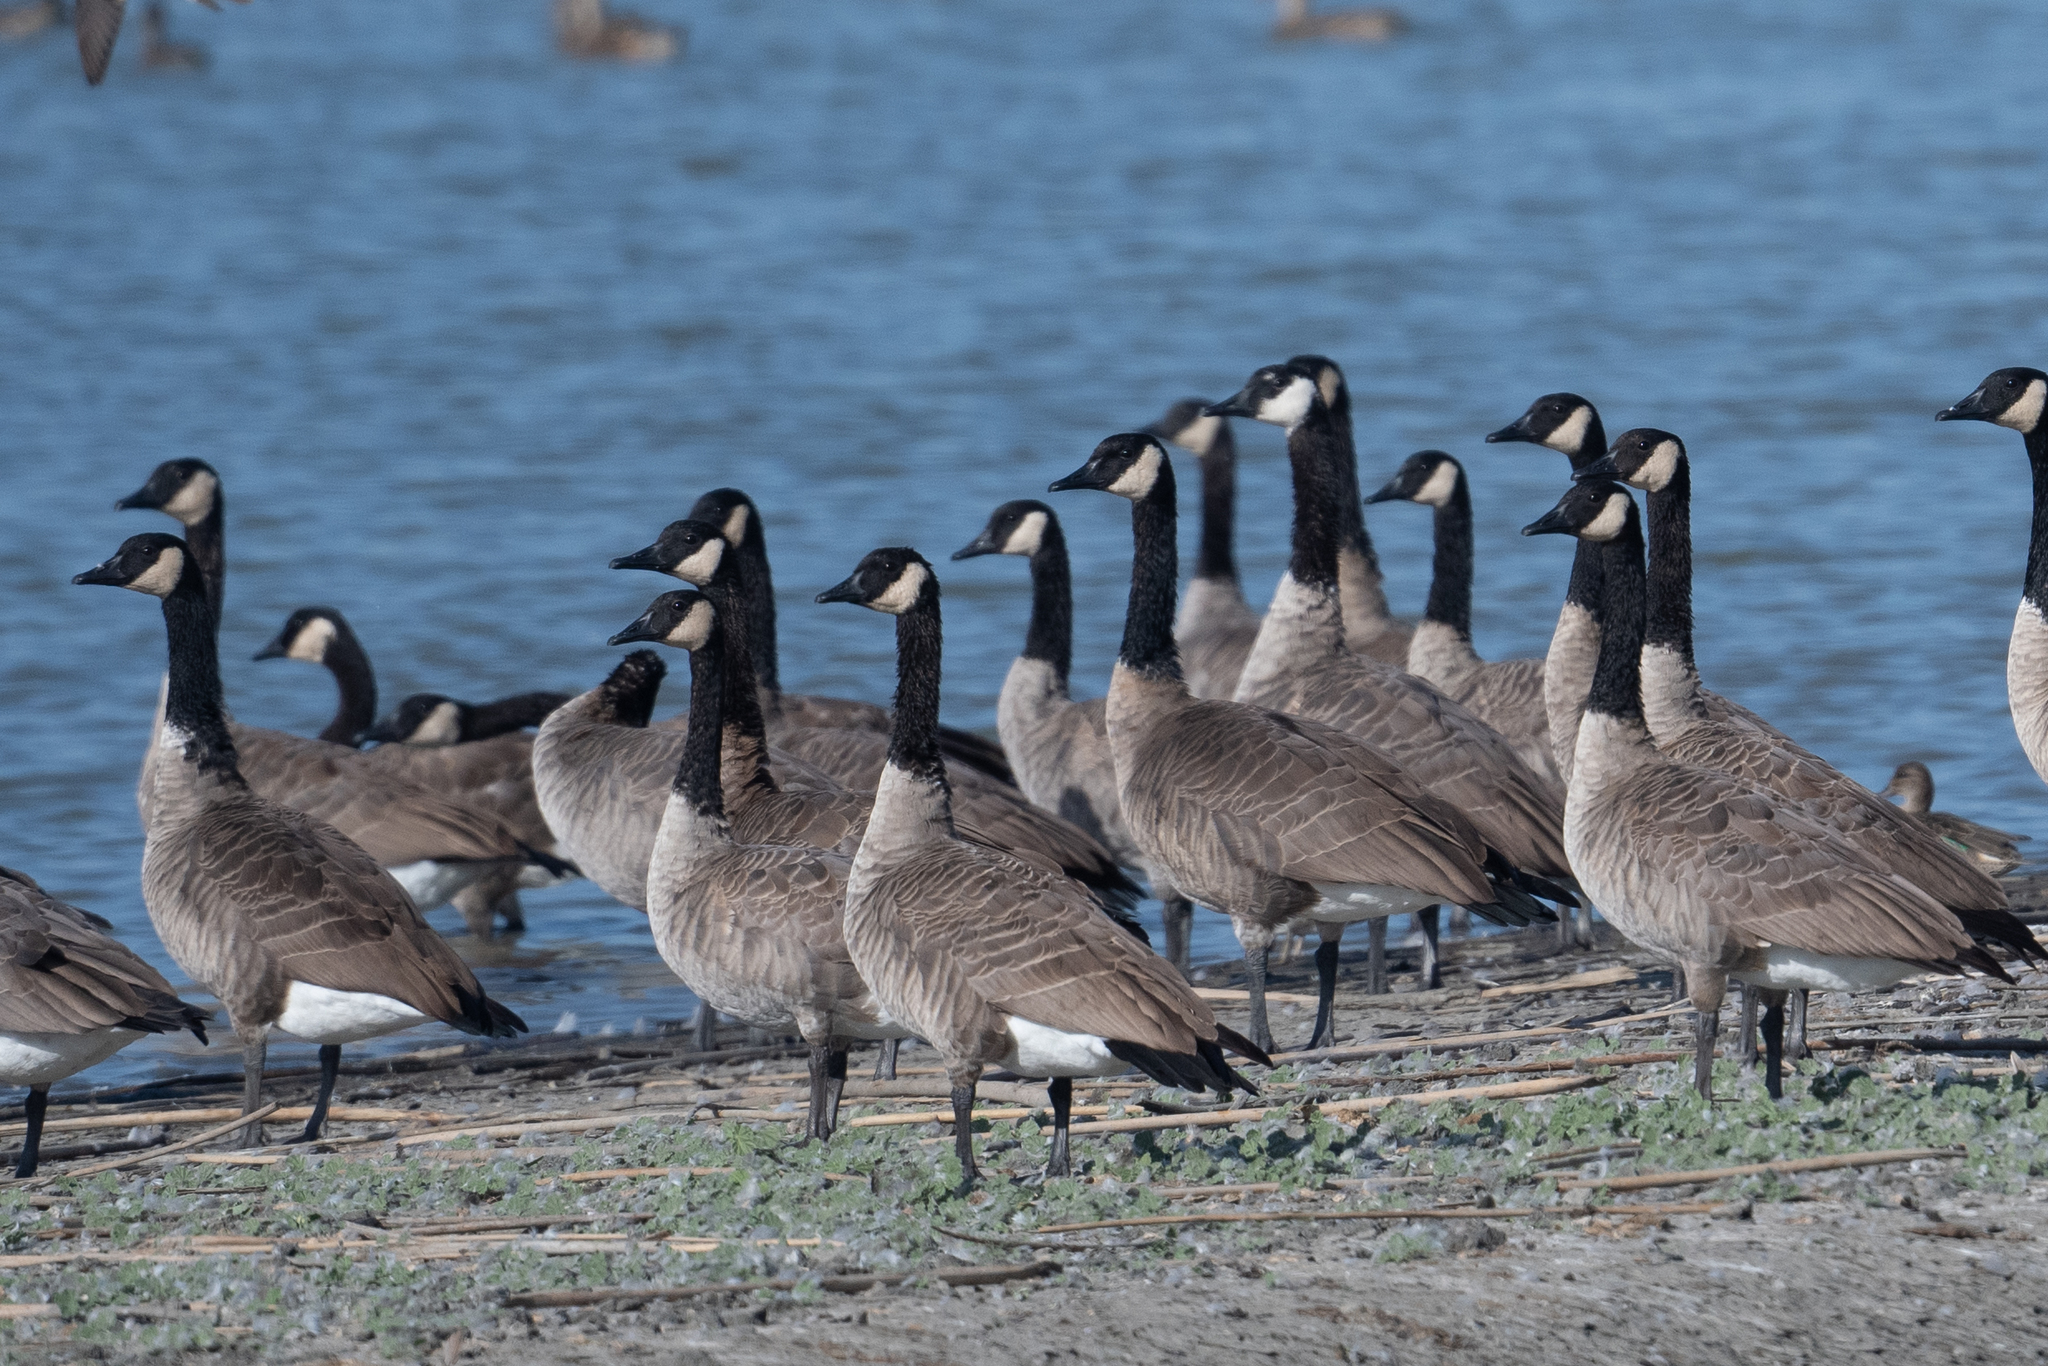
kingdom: Animalia
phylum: Chordata
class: Aves
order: Anseriformes
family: Anatidae
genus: Branta
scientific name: Branta canadensis
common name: Canada goose
